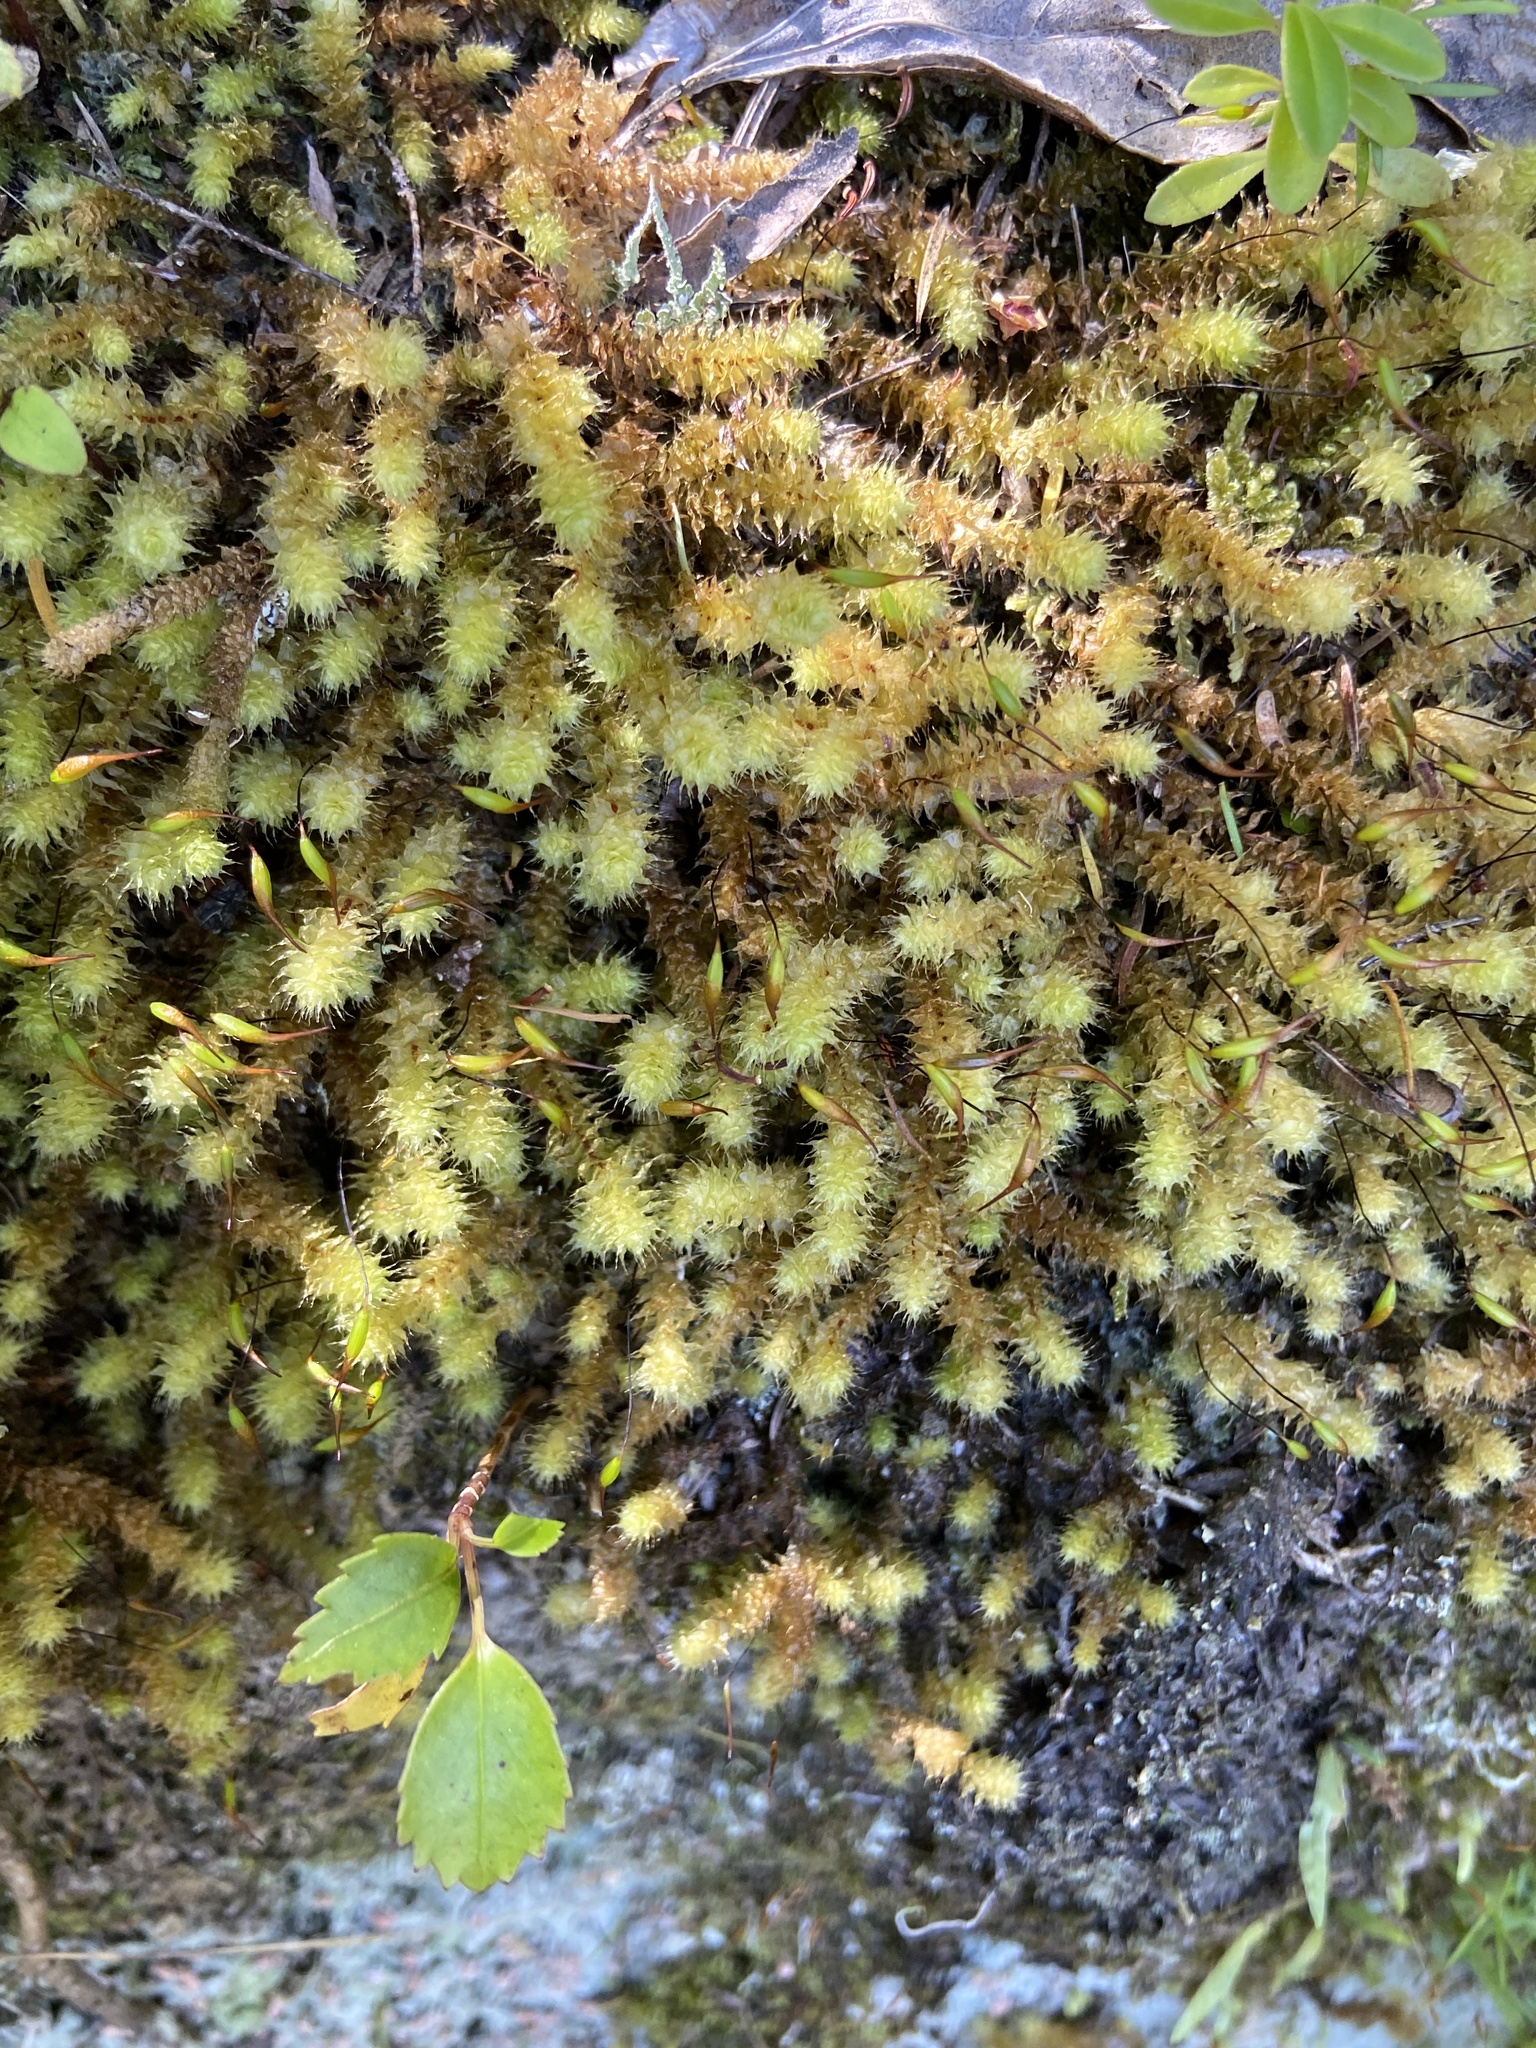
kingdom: Plantae
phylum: Bryophyta
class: Bryopsida
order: Ptychomniales
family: Ptychomniaceae
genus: Ptychomnion
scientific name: Ptychomnion aciculare
